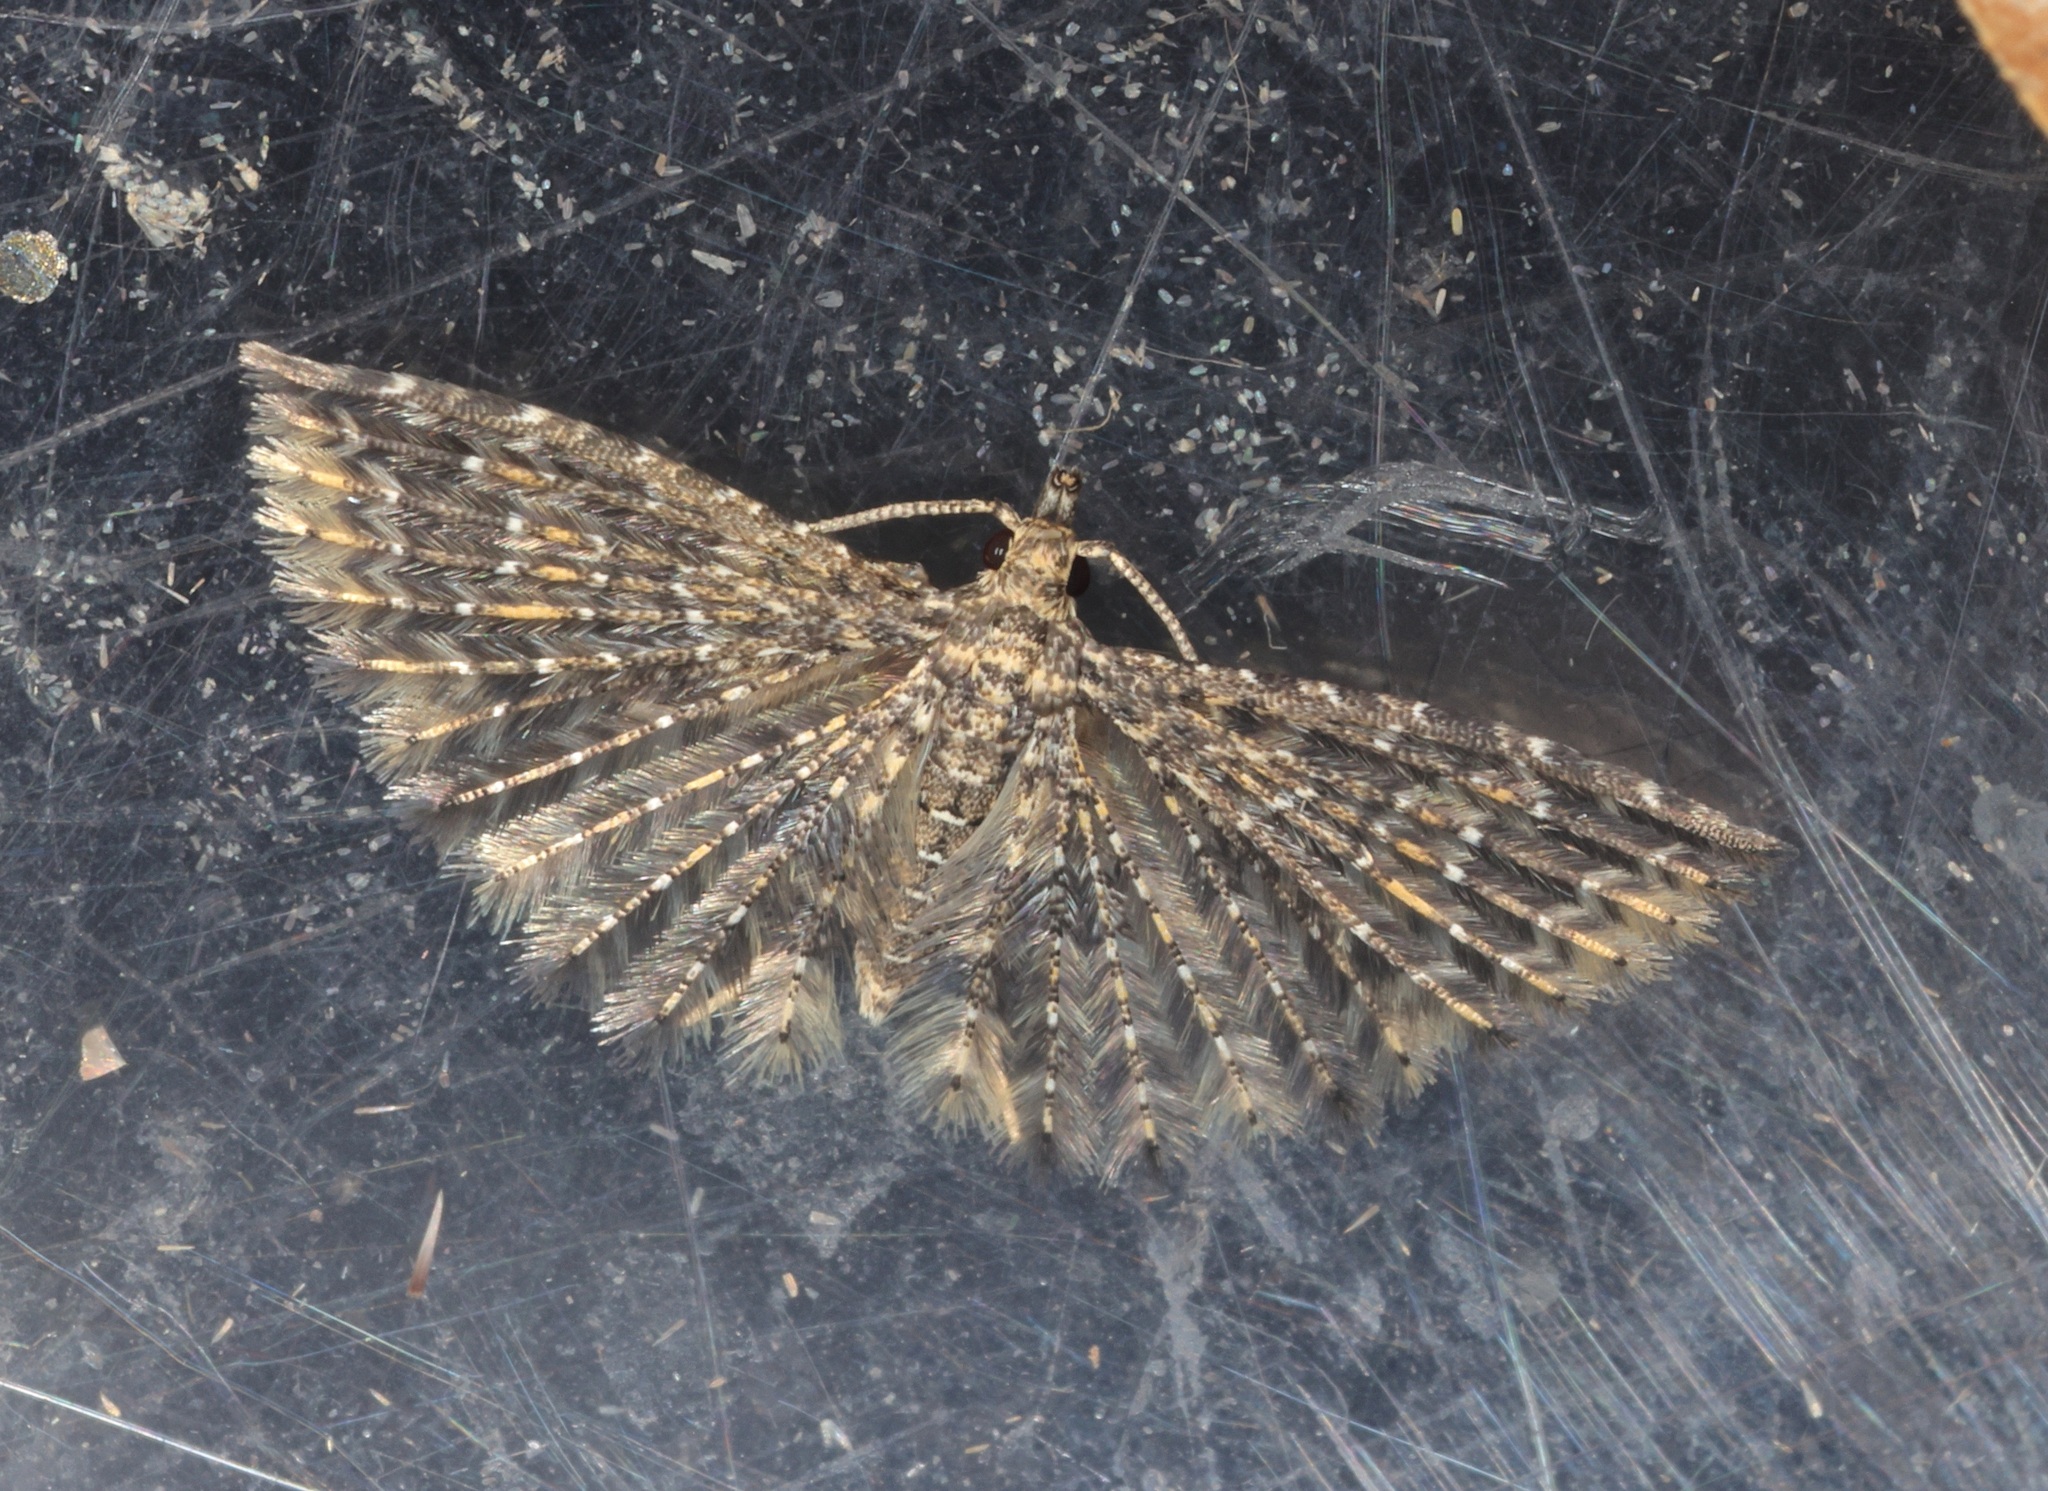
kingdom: Animalia
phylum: Arthropoda
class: Insecta
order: Lepidoptera
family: Alucitidae
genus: Pterotopteryx
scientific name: Pterotopteryx spilodesma
